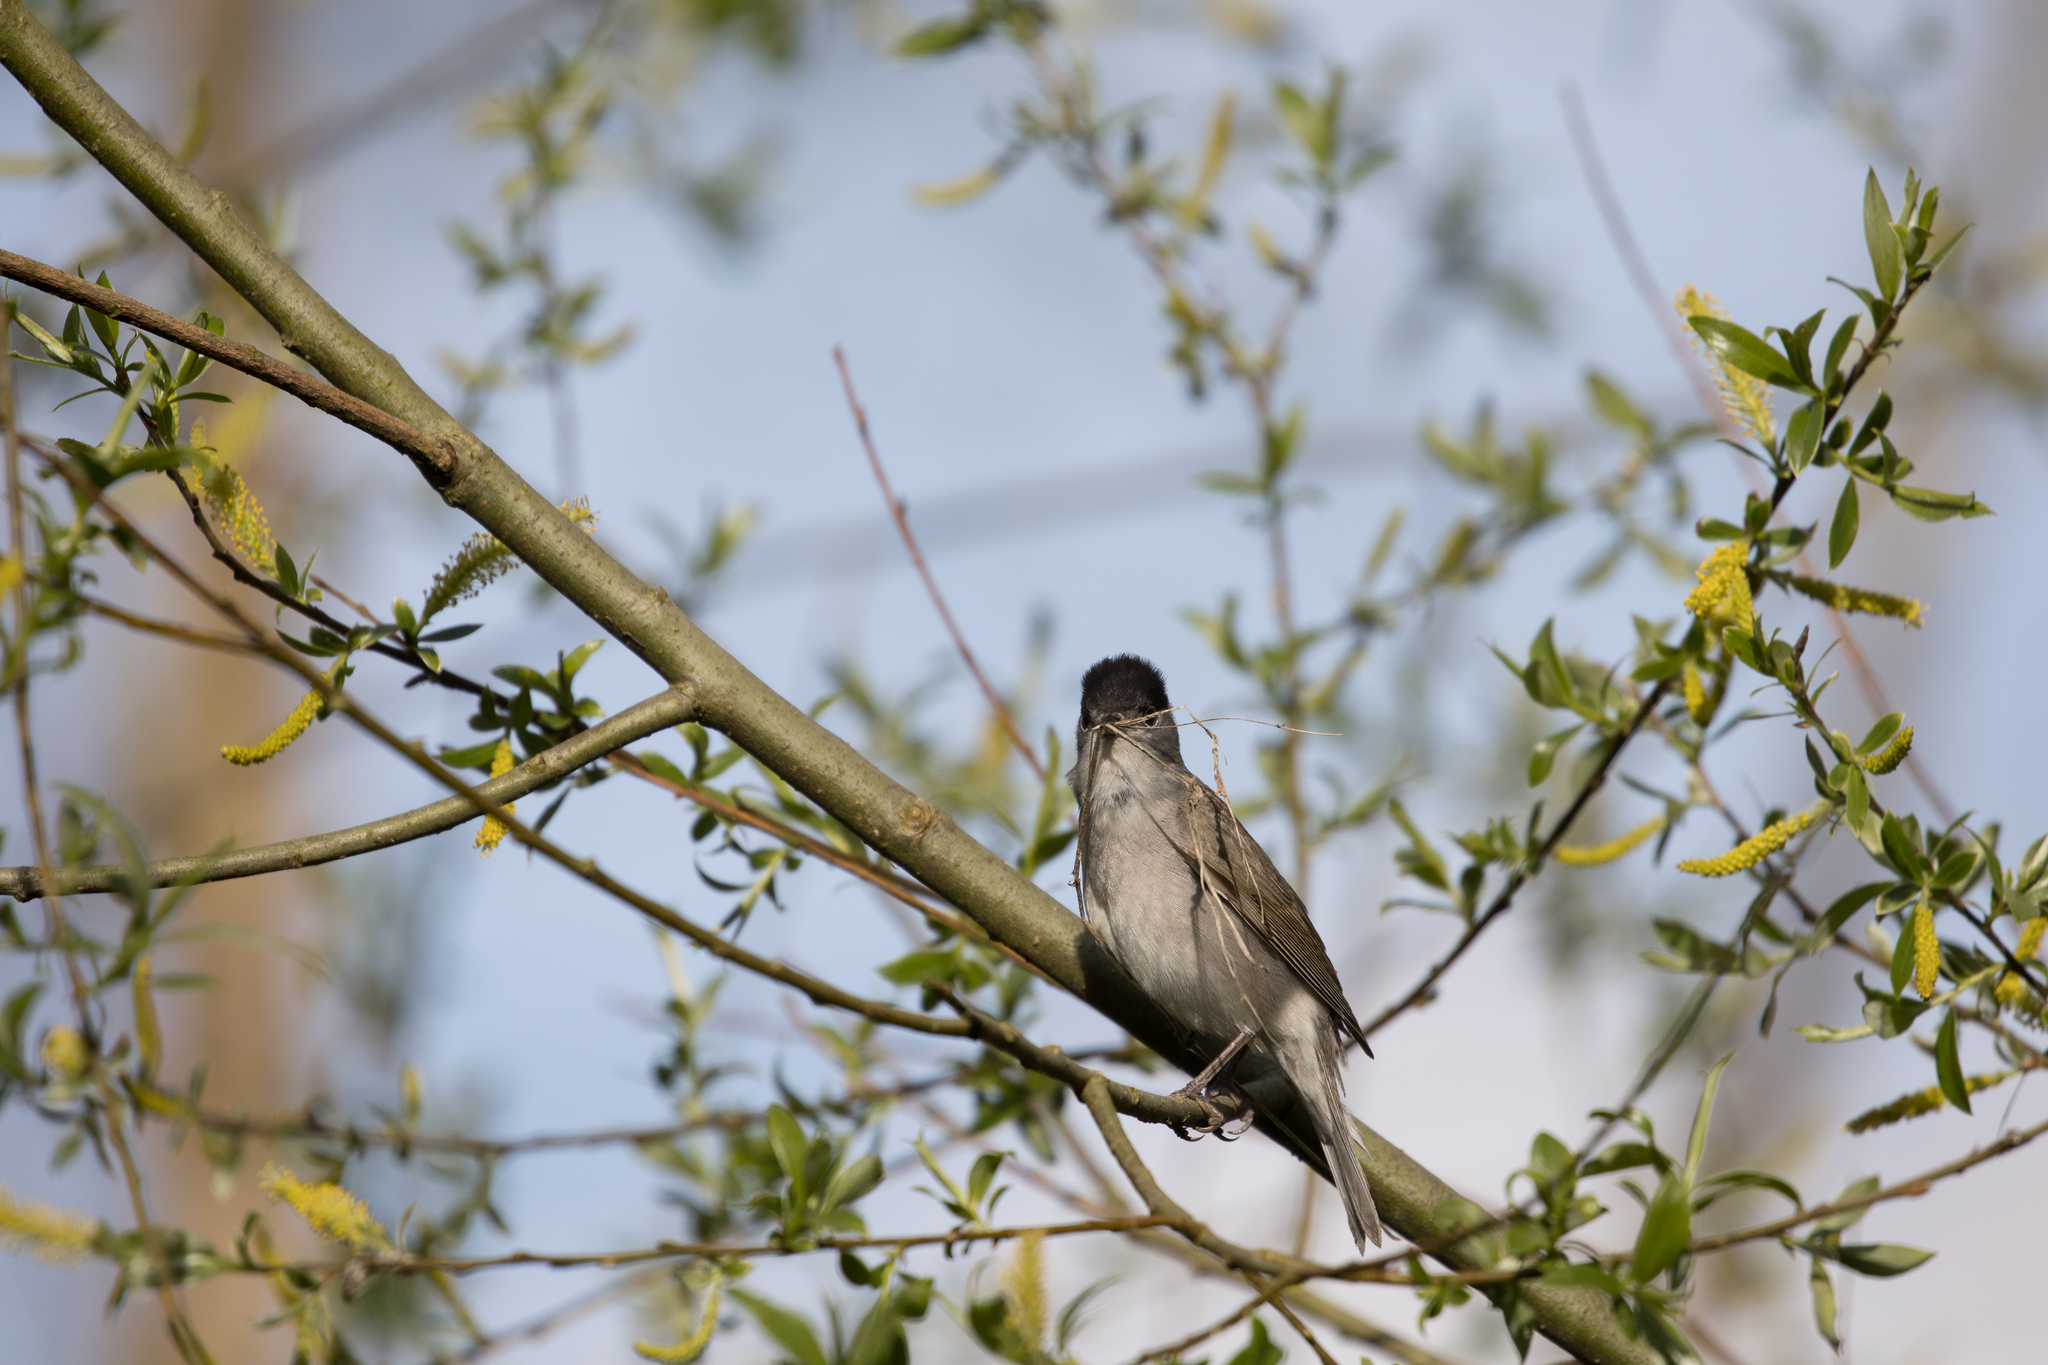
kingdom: Animalia
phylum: Chordata
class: Aves
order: Passeriformes
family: Sylviidae
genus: Sylvia
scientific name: Sylvia atricapilla
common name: Eurasian blackcap
